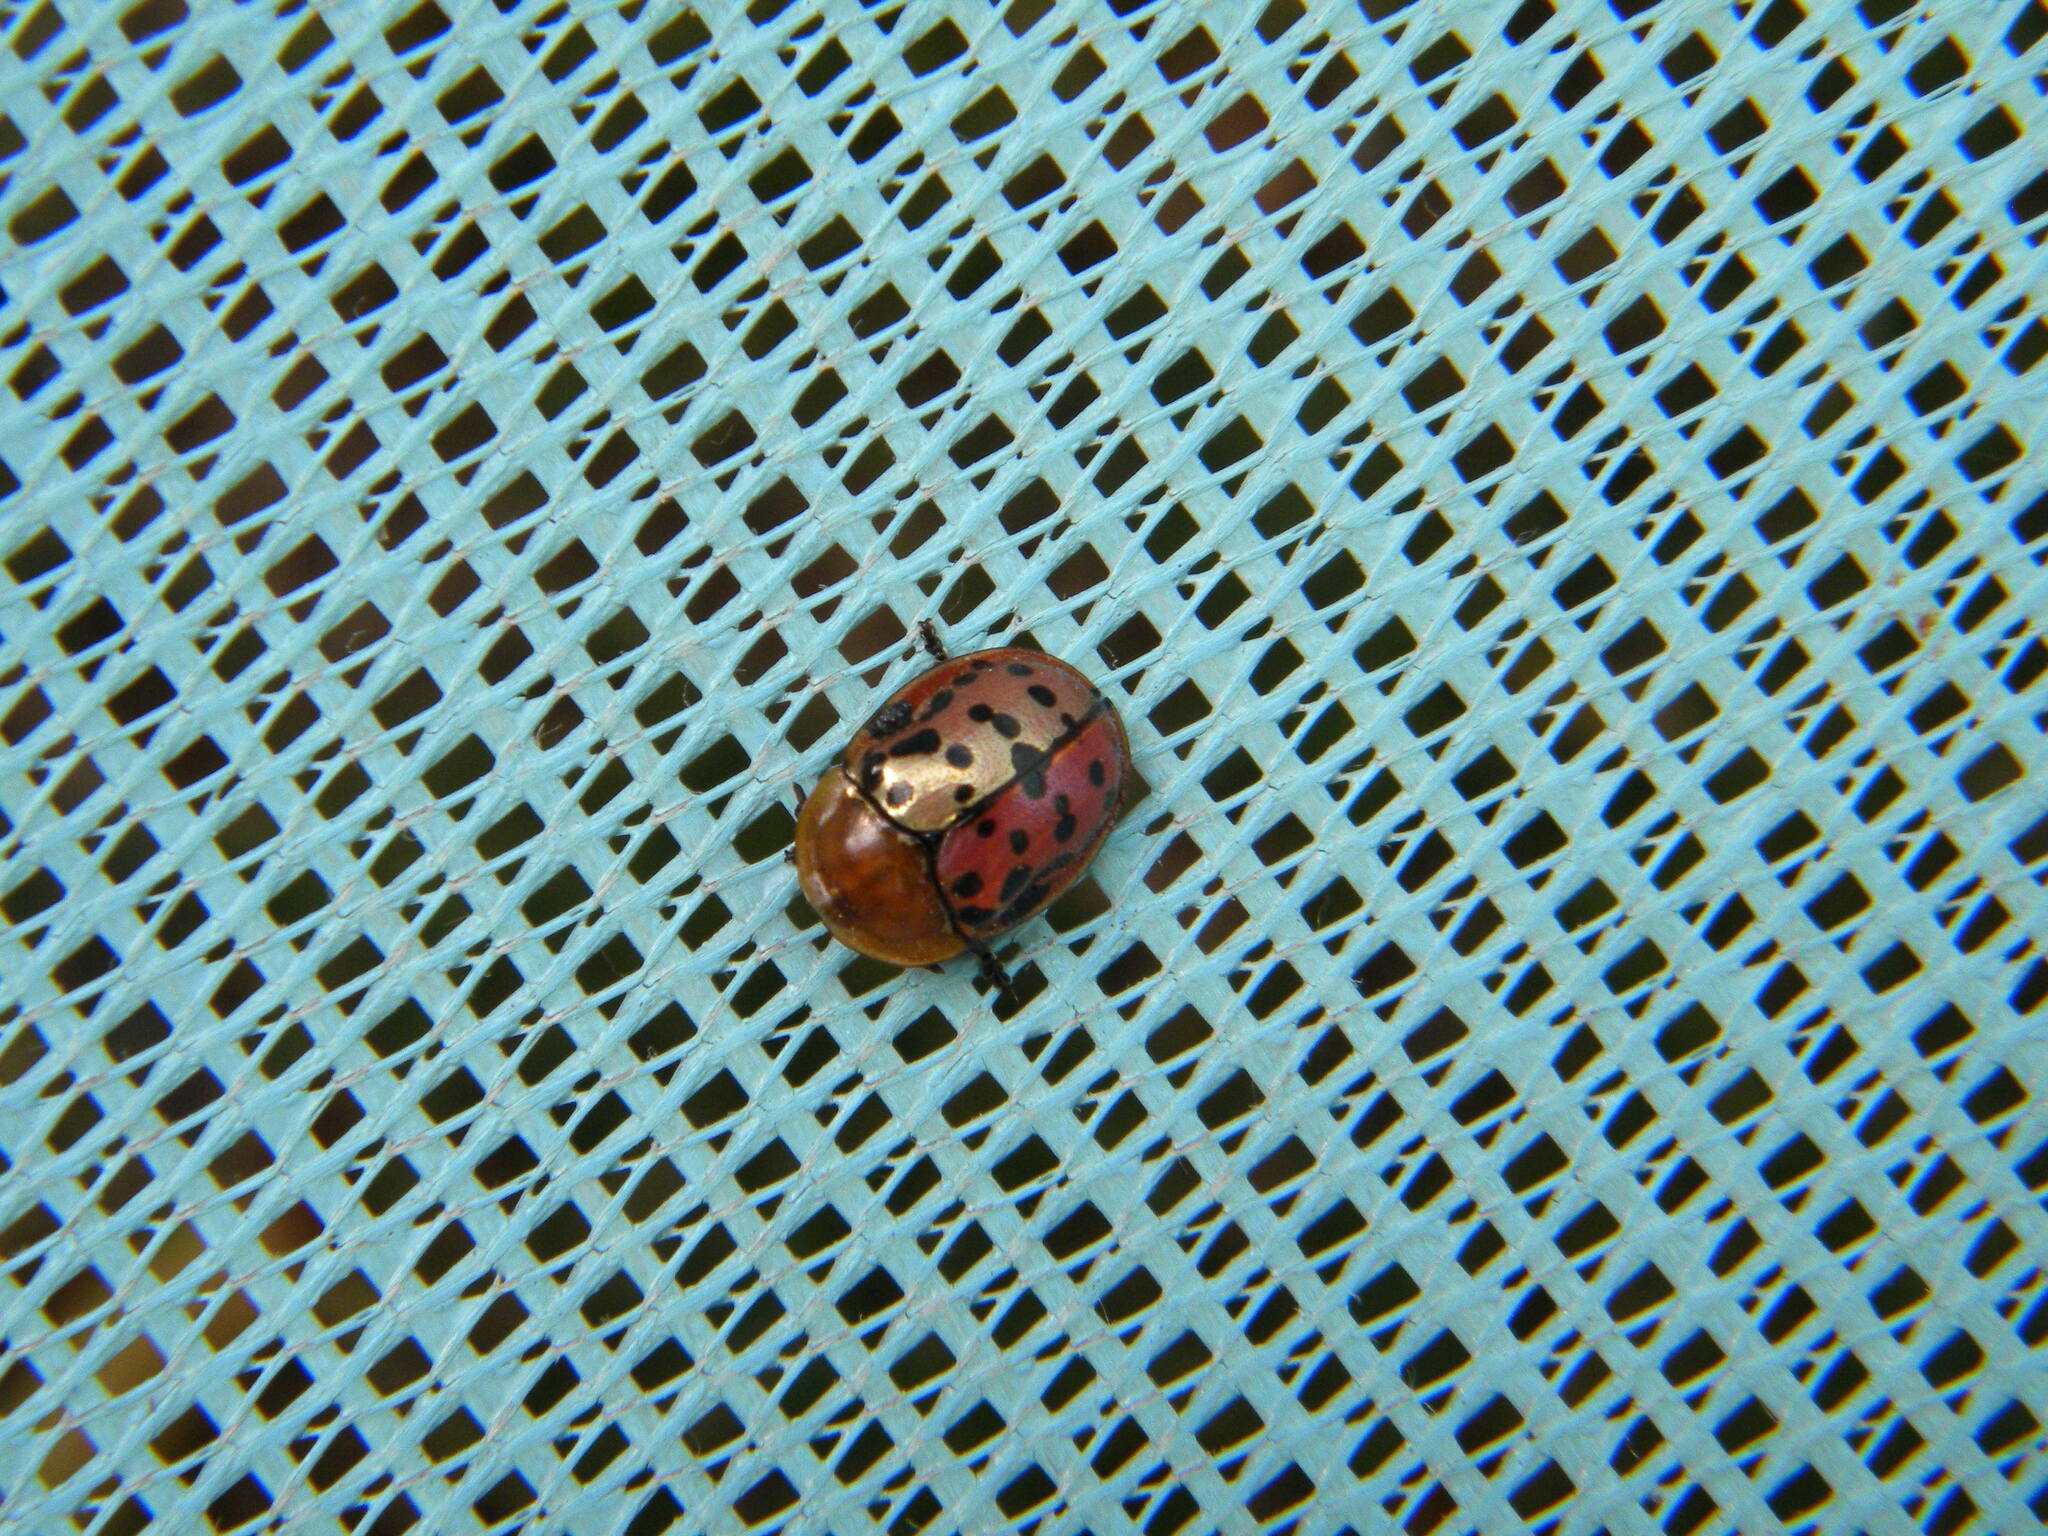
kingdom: Animalia
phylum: Arthropoda
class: Insecta
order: Coleoptera
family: Chrysomelidae
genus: Conchyloctenia
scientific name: Conchyloctenia punctata
